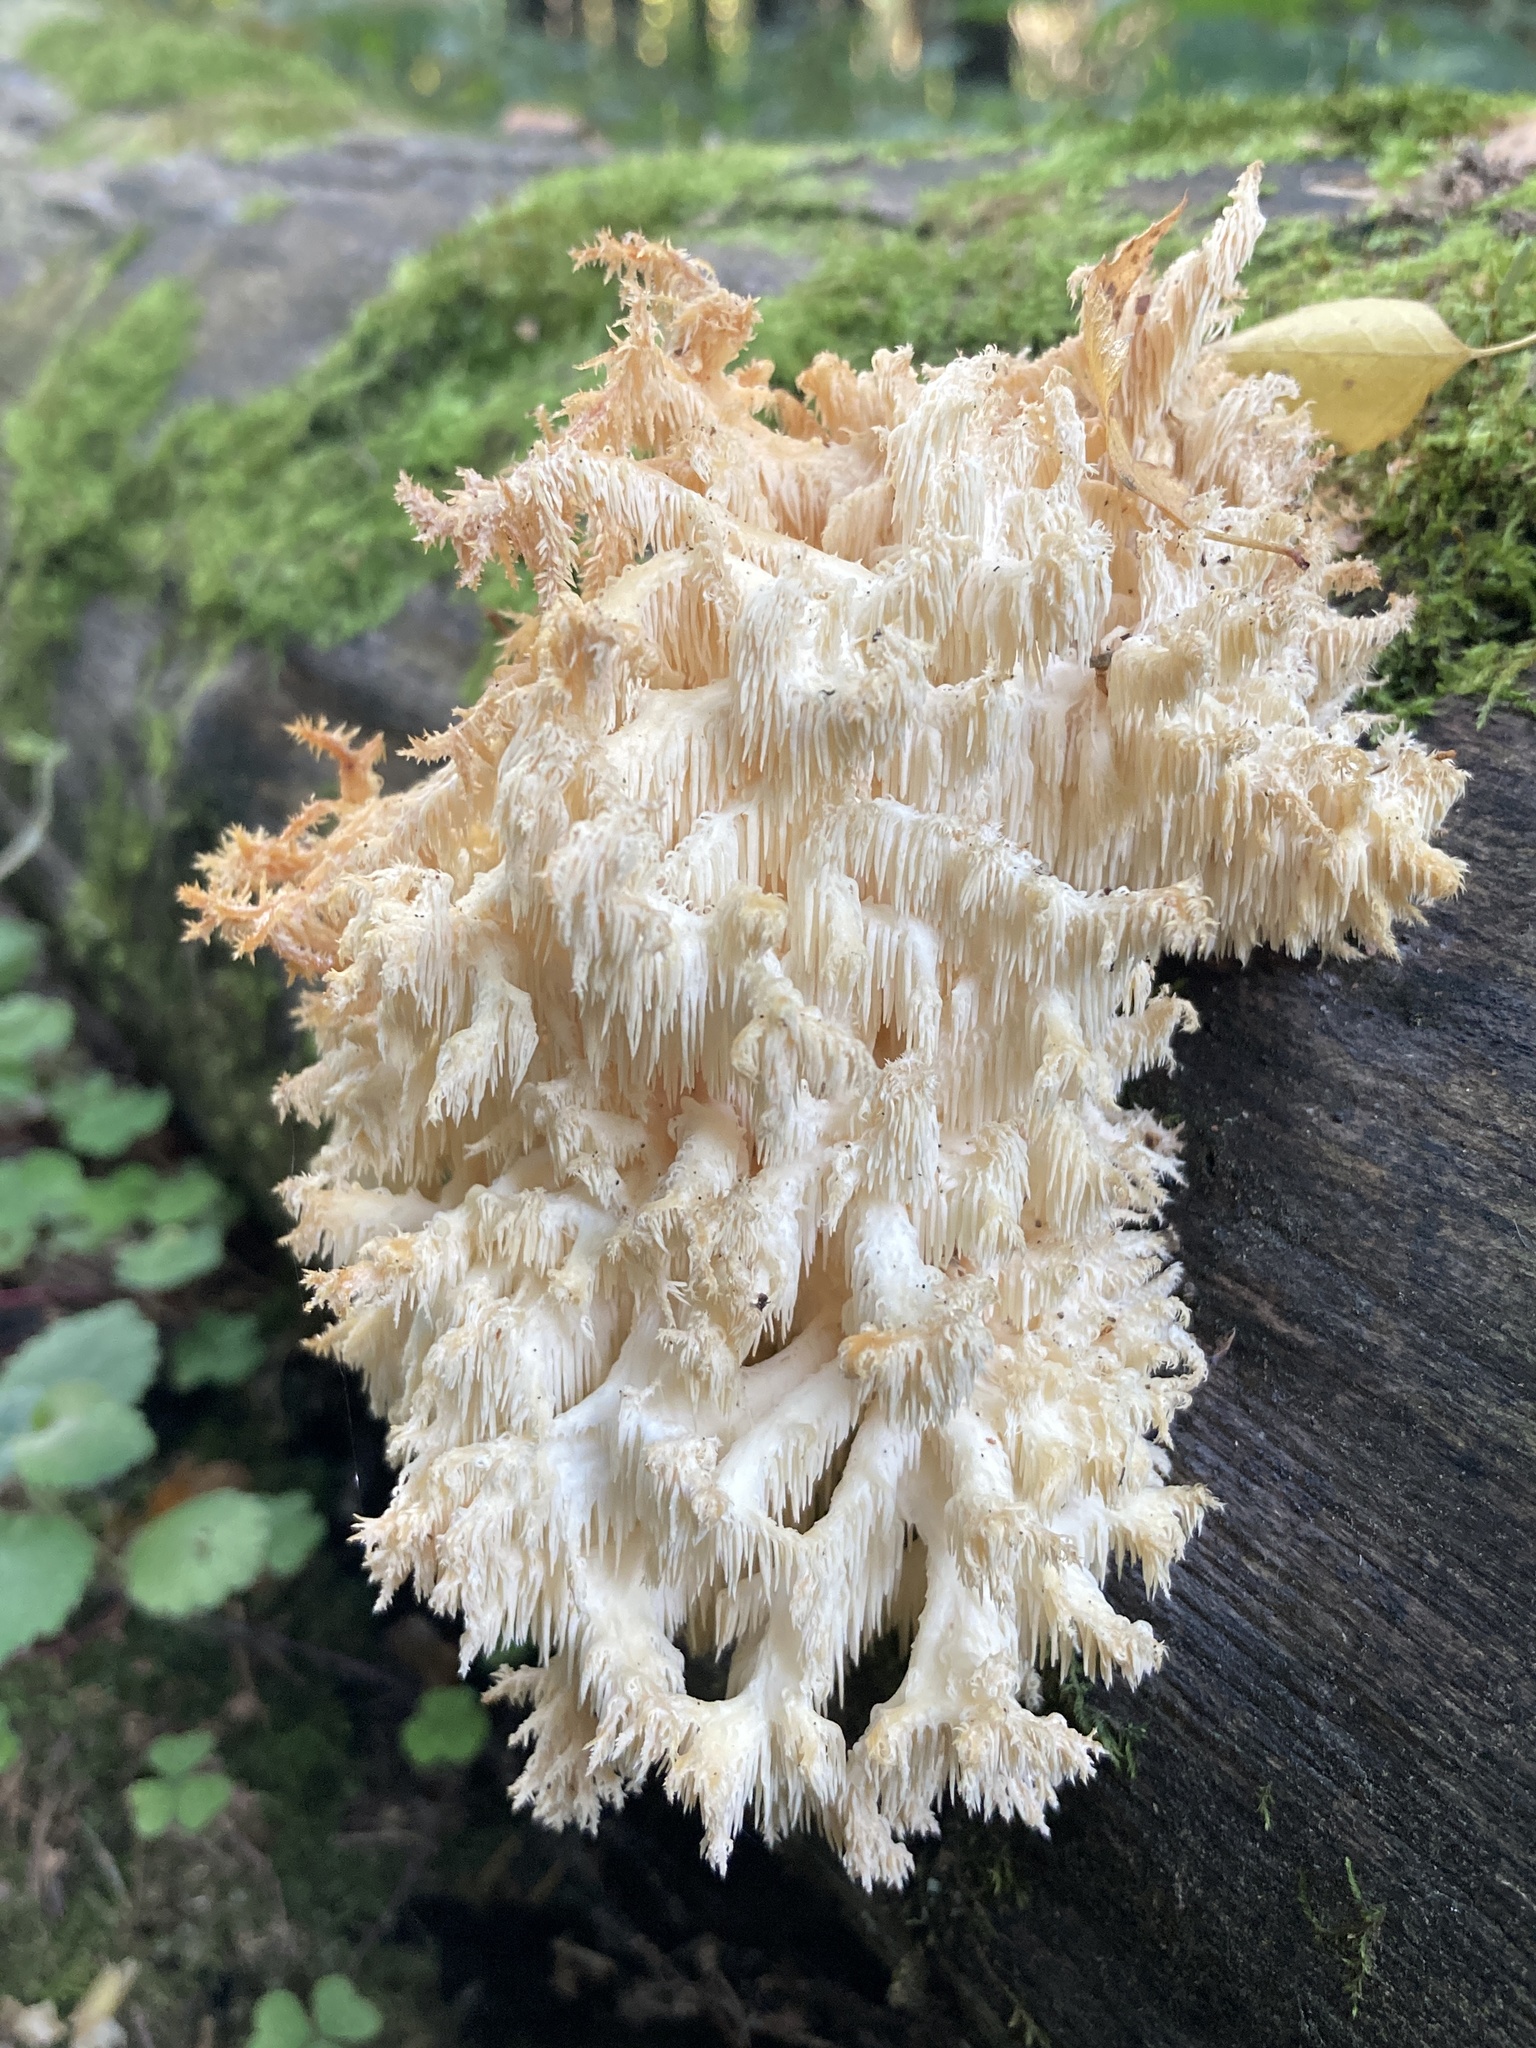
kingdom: Fungi
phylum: Basidiomycota
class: Agaricomycetes
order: Russulales
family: Hericiaceae
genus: Hericium
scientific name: Hericium coralloides
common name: Coral tooth
